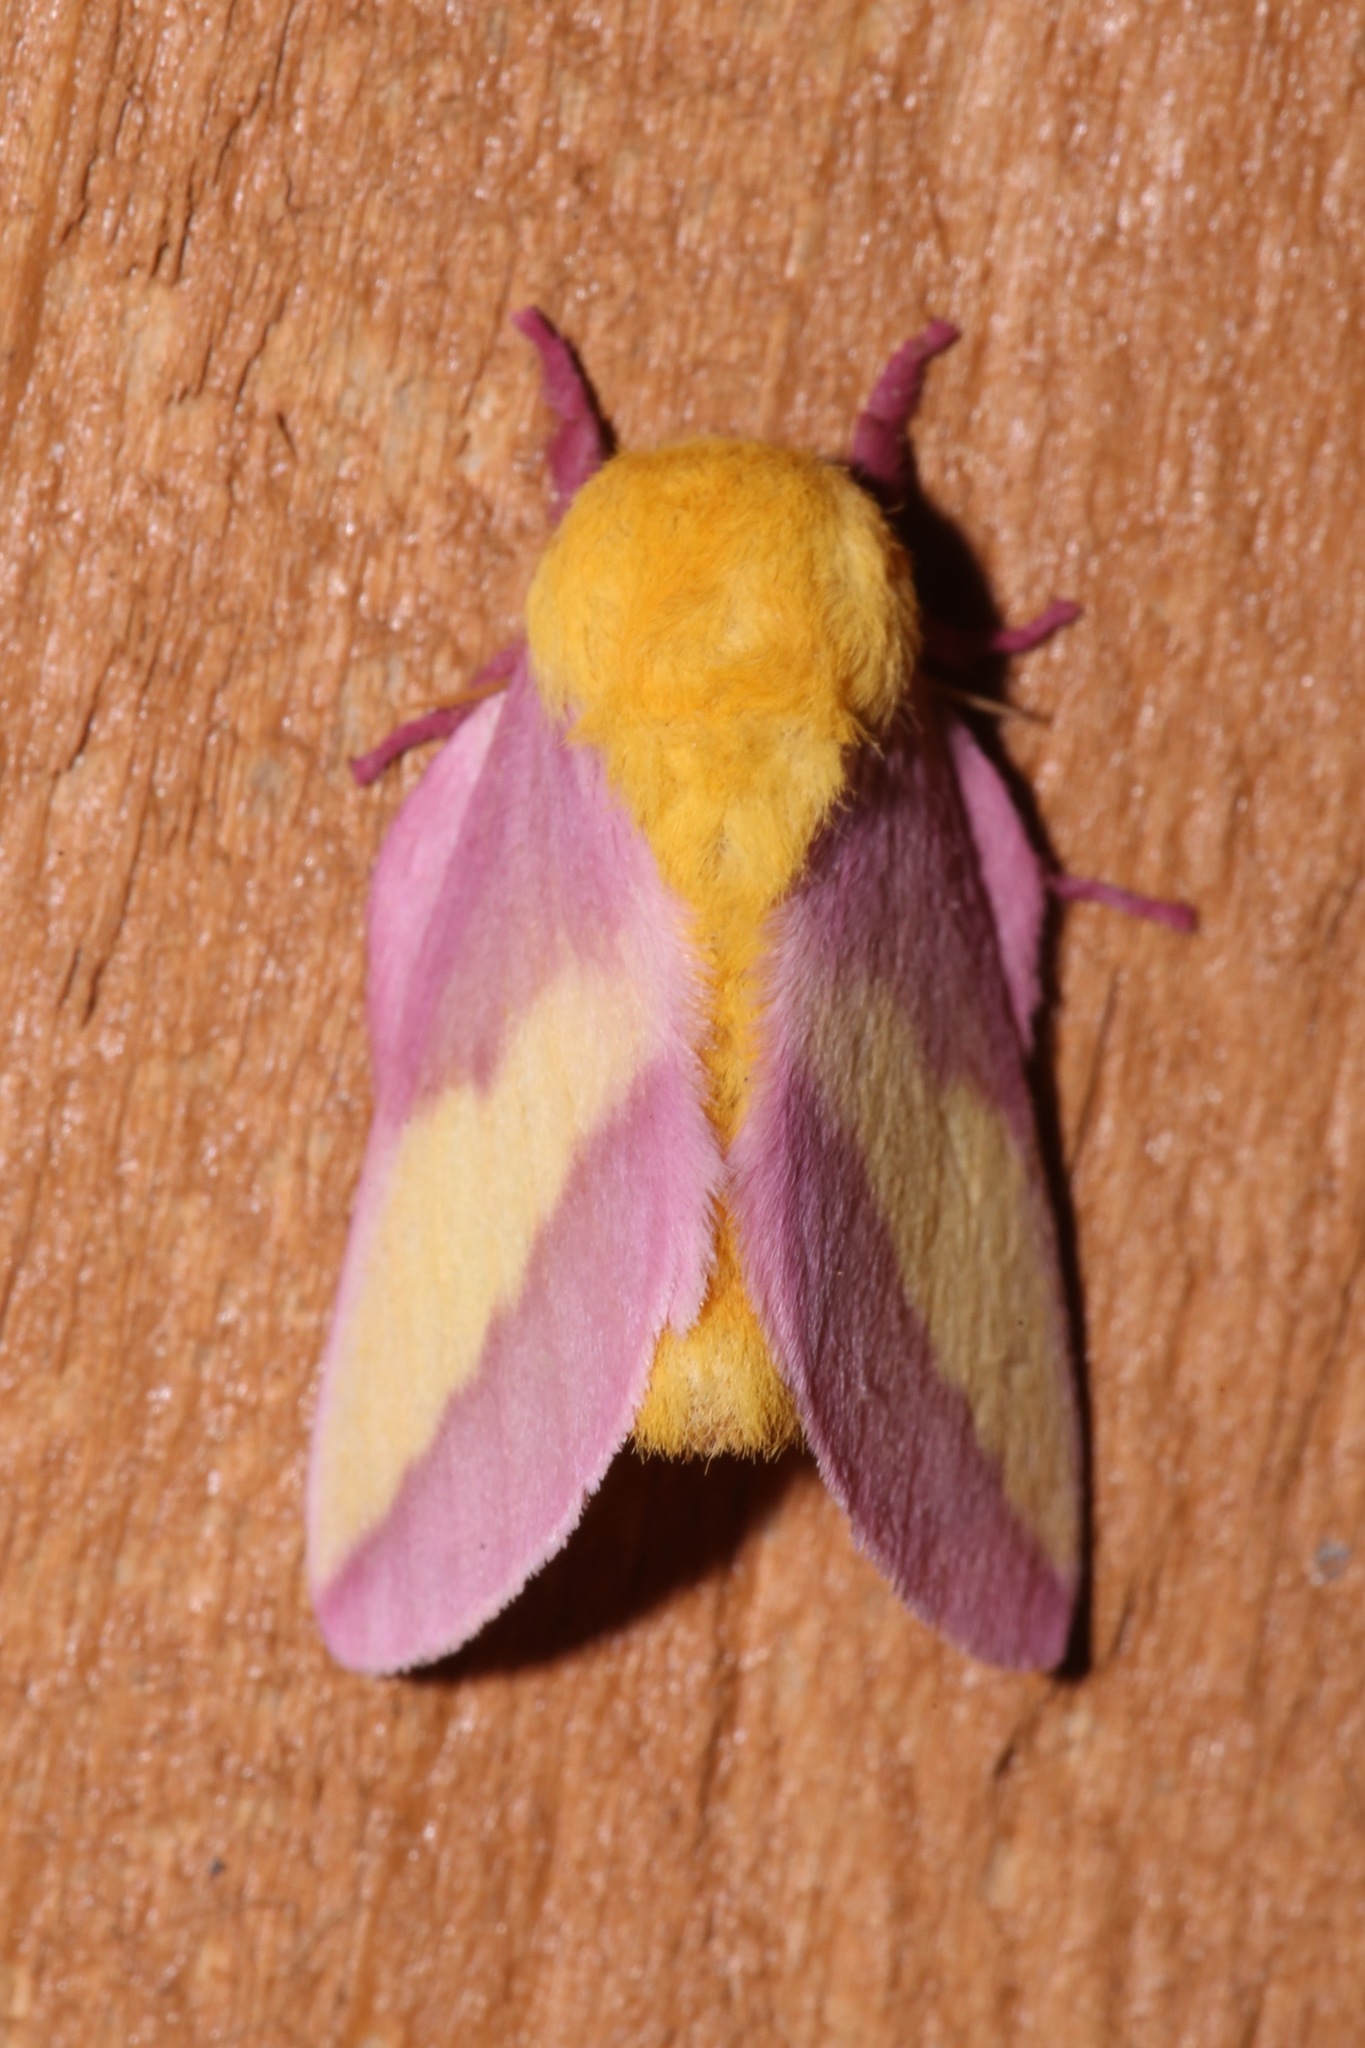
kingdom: Animalia
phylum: Arthropoda
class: Insecta
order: Lepidoptera
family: Saturniidae
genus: Dryocampa
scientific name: Dryocampa rubicunda
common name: Rosy maple moth
